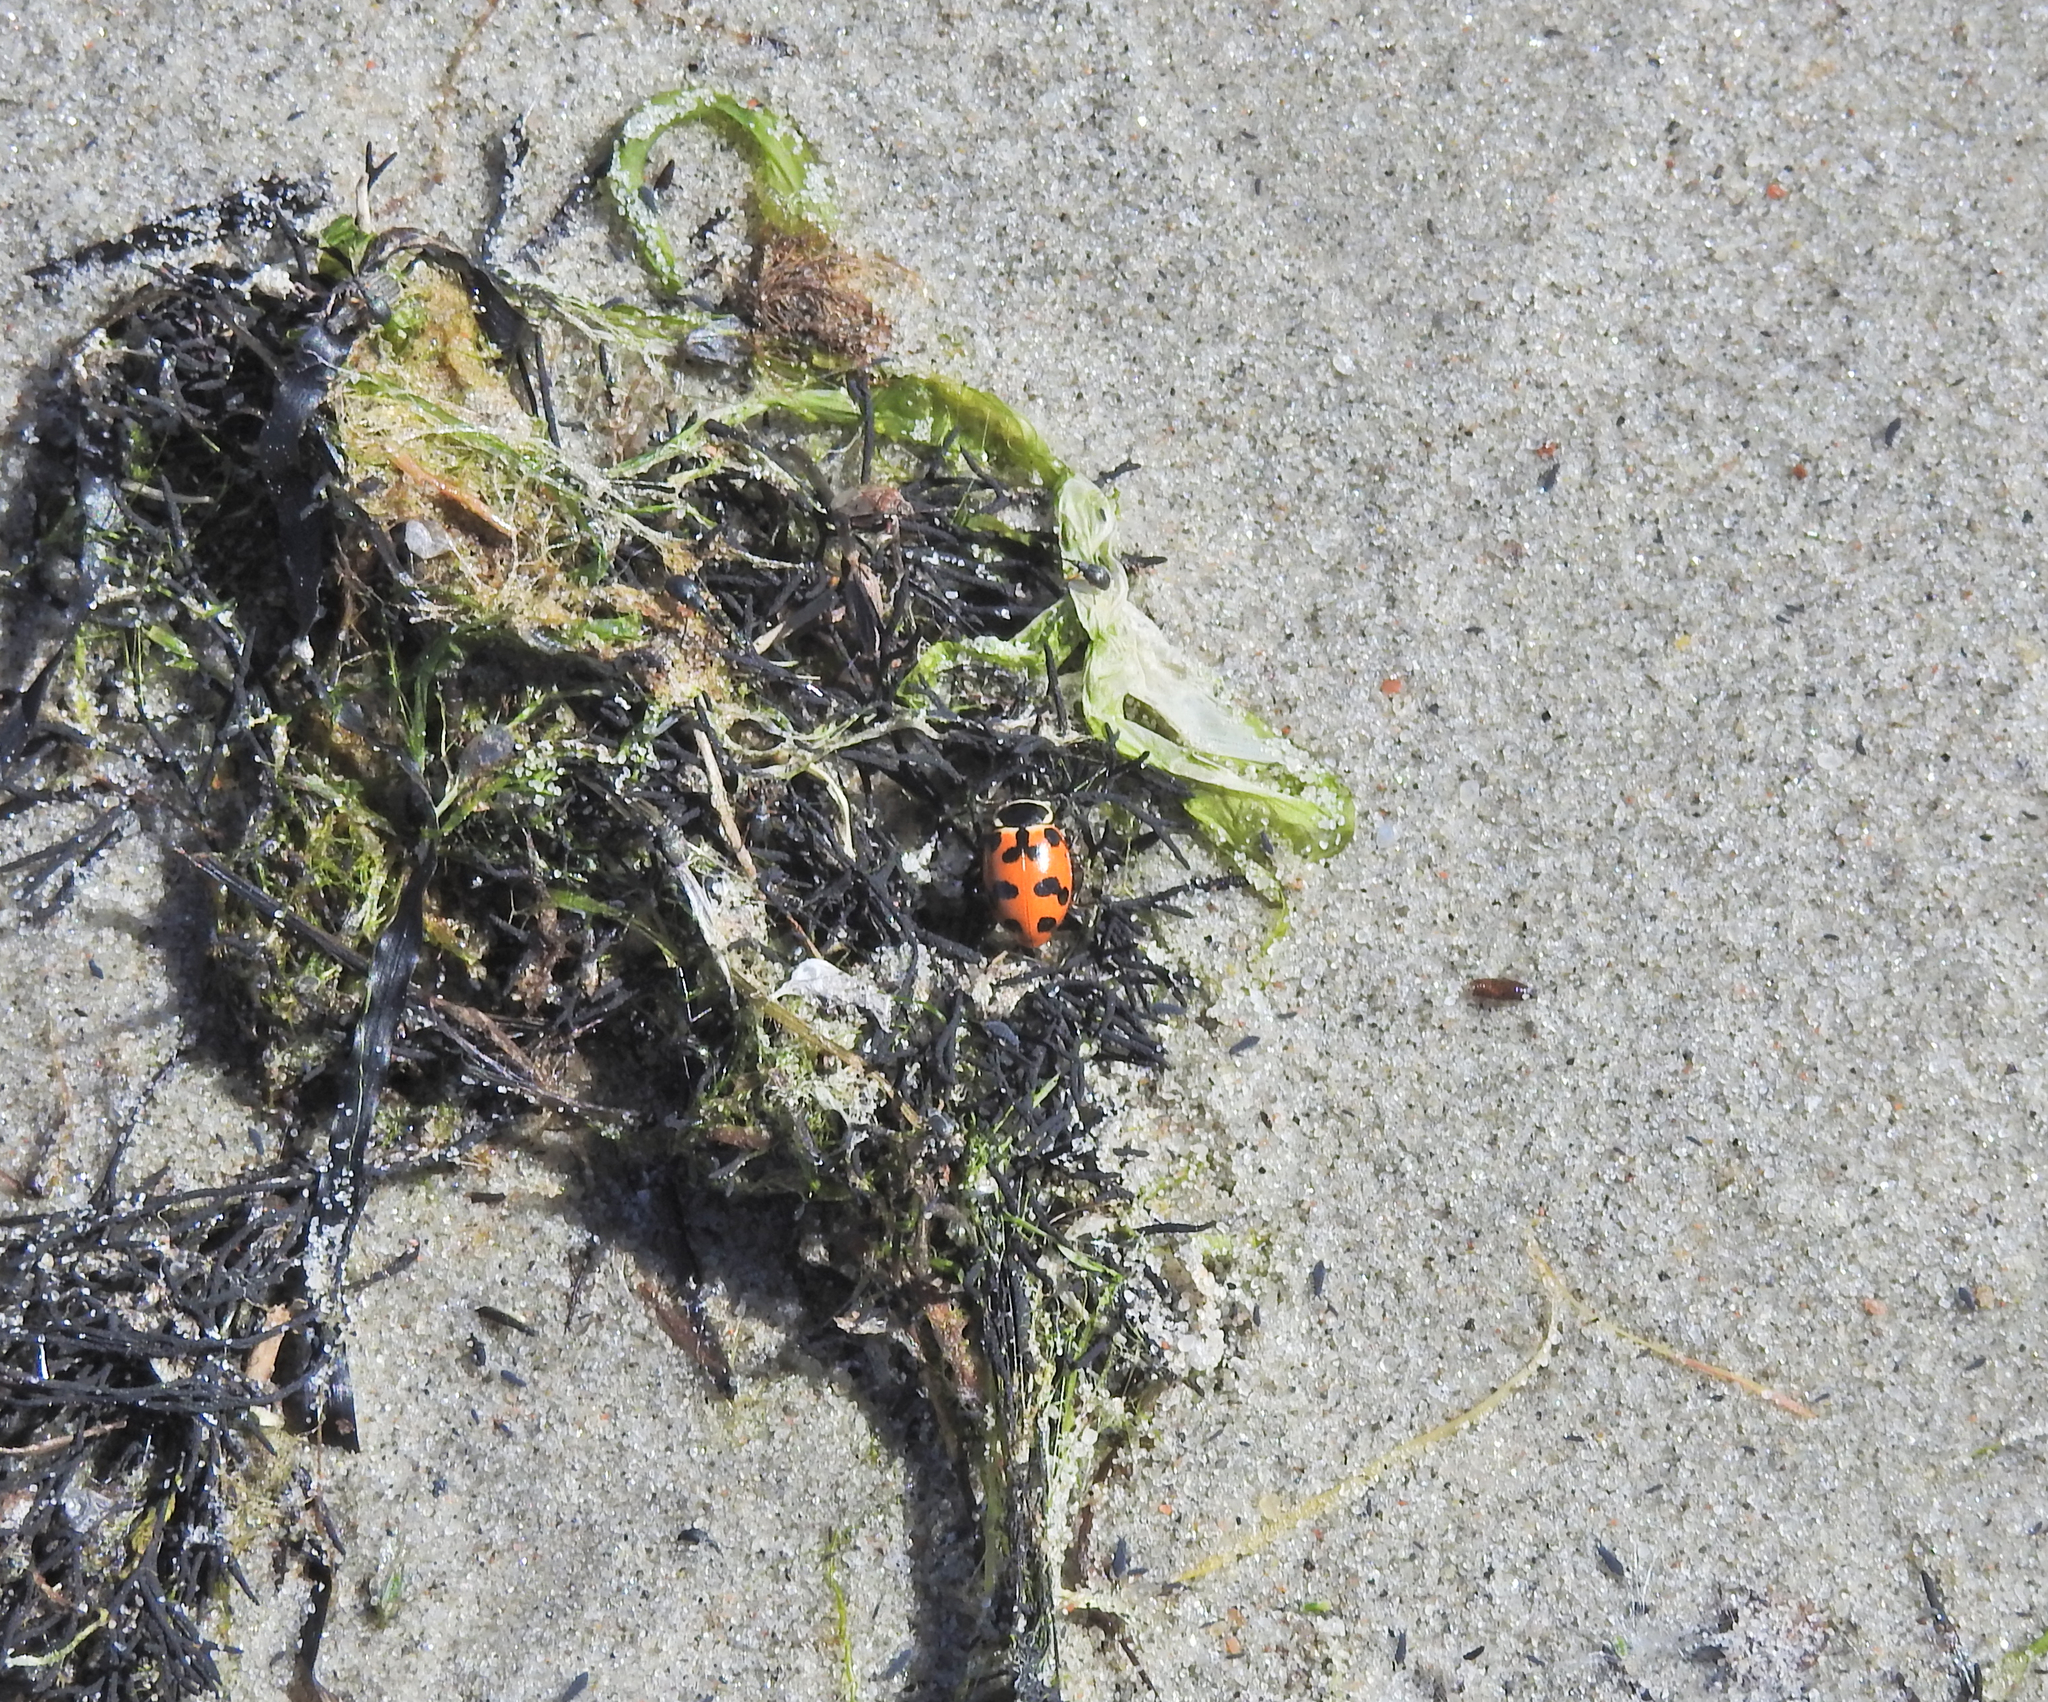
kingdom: Animalia
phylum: Arthropoda
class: Insecta
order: Coleoptera
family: Coccinellidae
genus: Hippodamia
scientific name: Hippodamia septemmaculata
